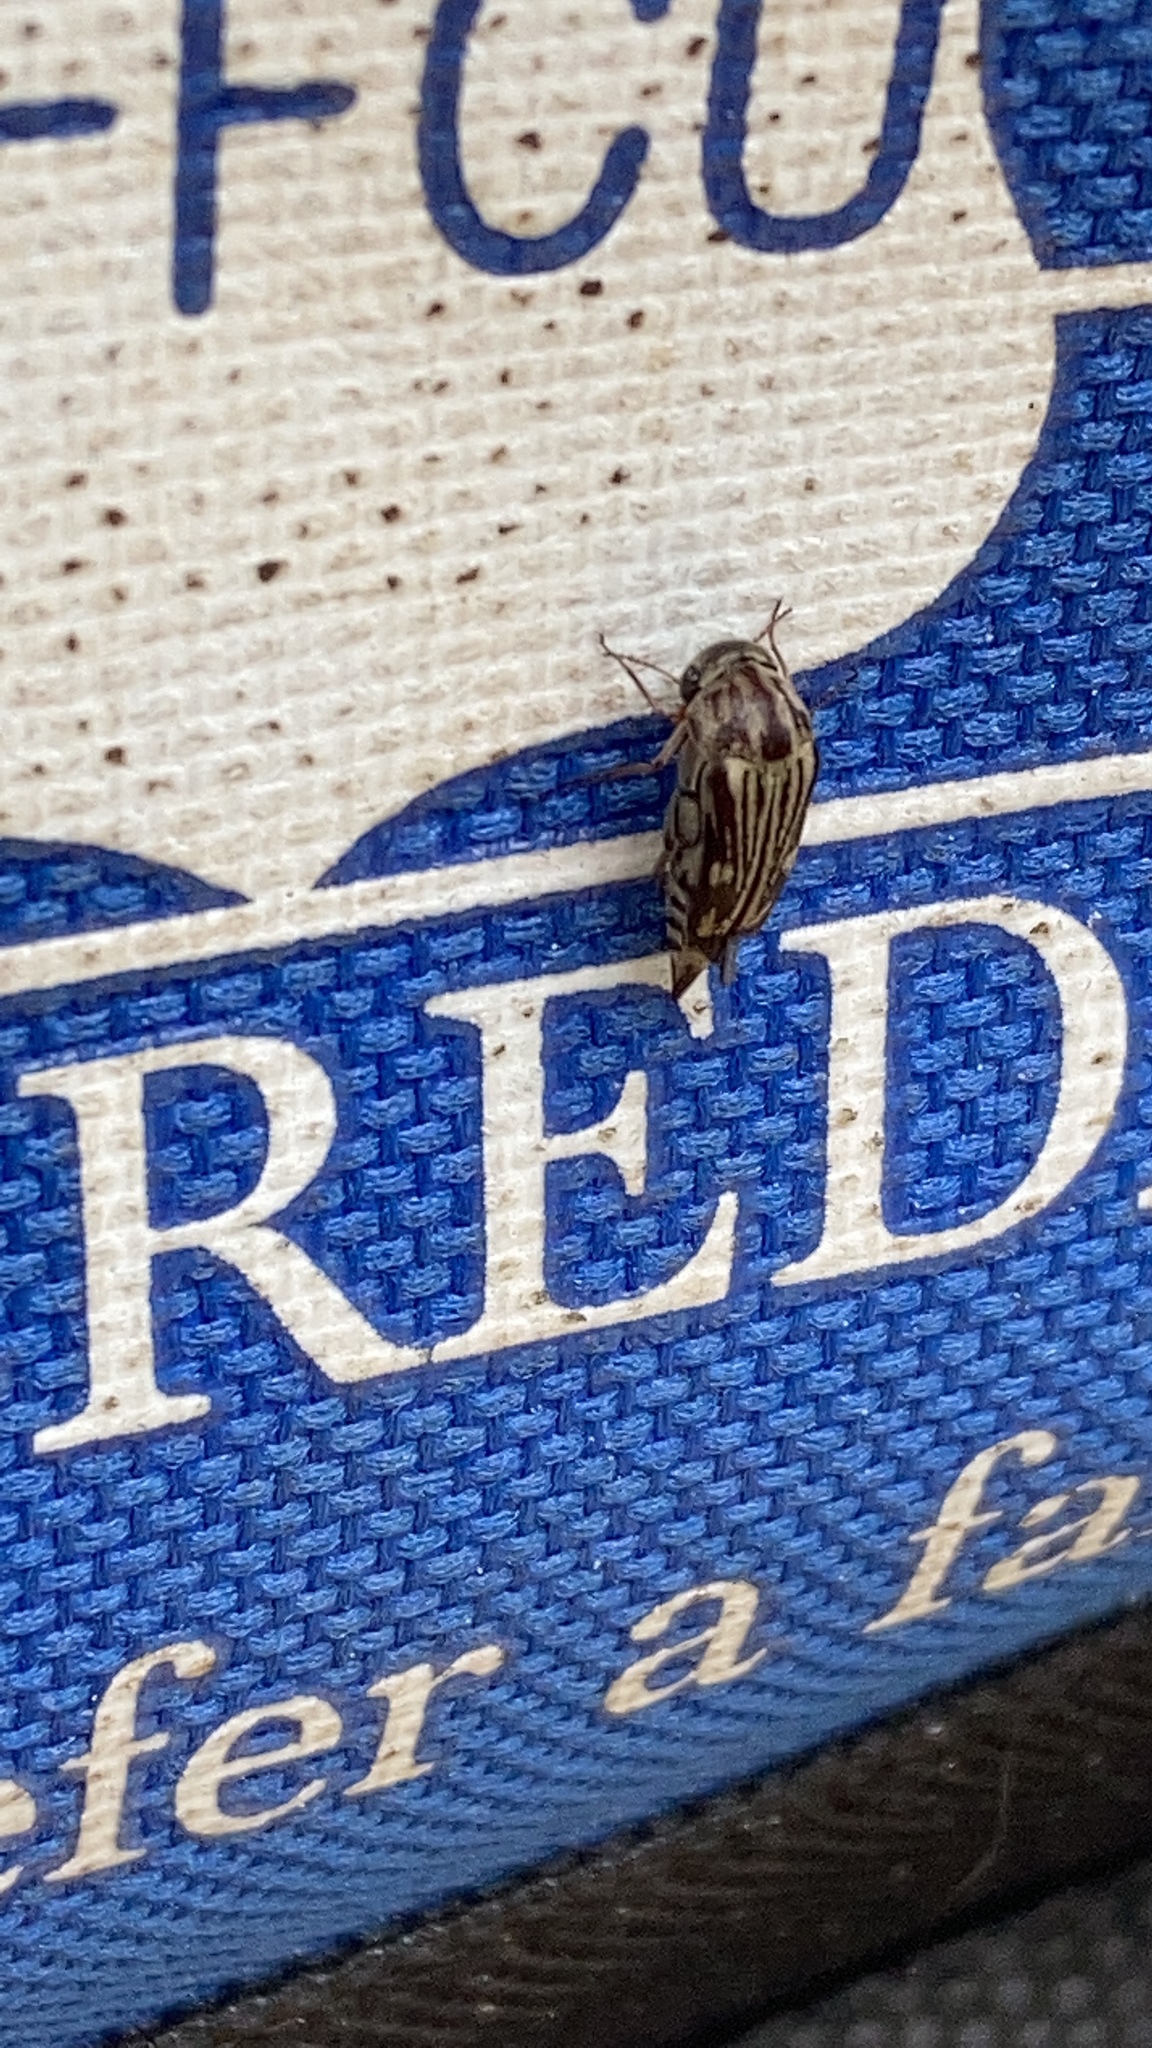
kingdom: Animalia
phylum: Arthropoda
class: Insecta
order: Coleoptera
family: Mordellidae
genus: Tomoxia
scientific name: Tomoxia lineella
